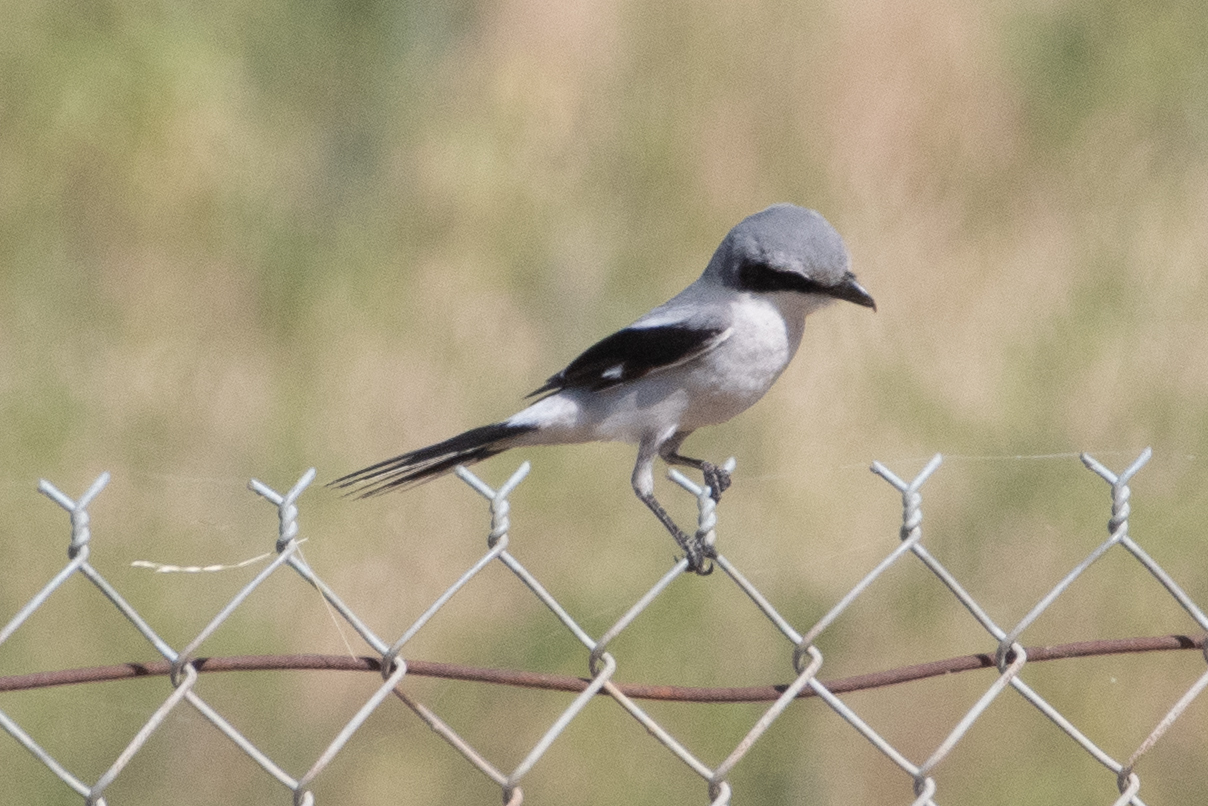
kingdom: Animalia
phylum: Chordata
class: Aves
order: Passeriformes
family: Laniidae
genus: Lanius
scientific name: Lanius ludovicianus
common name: Loggerhead shrike
